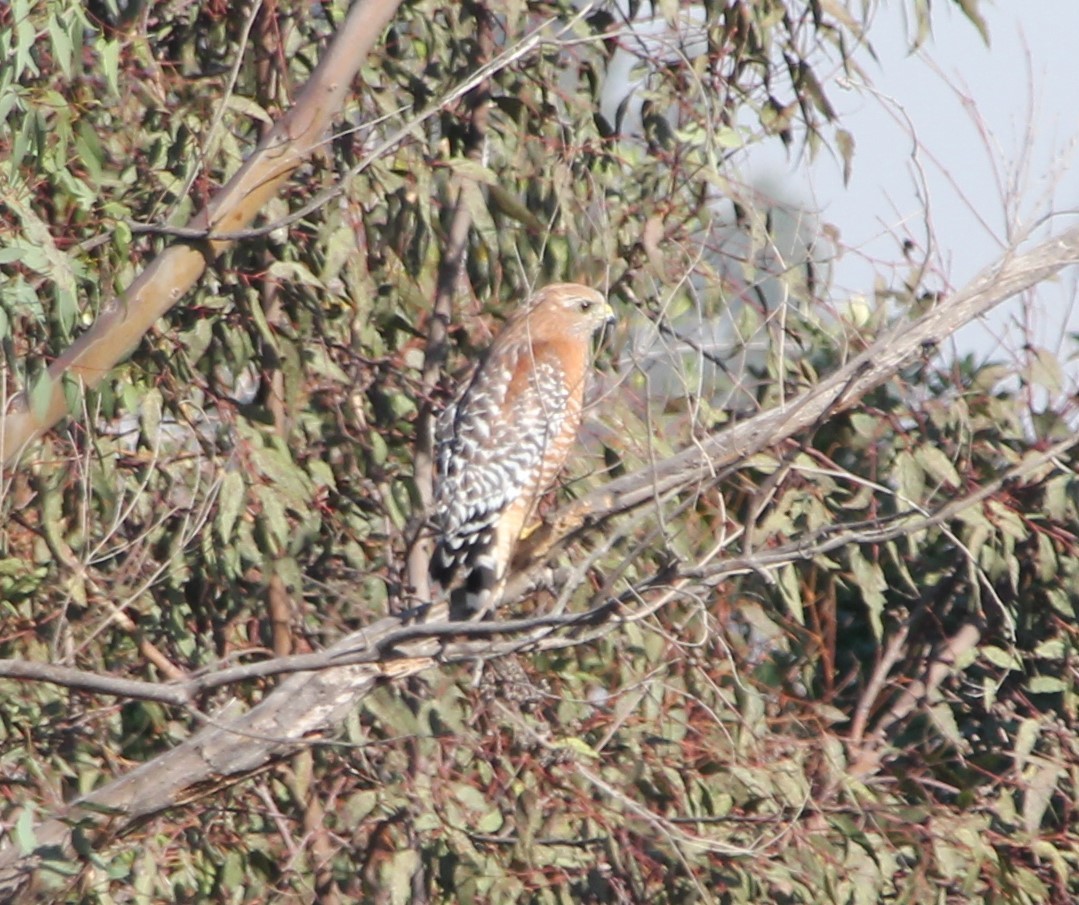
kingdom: Animalia
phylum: Chordata
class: Aves
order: Accipitriformes
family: Accipitridae
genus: Buteo
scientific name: Buteo lineatus
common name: Red-shouldered hawk
